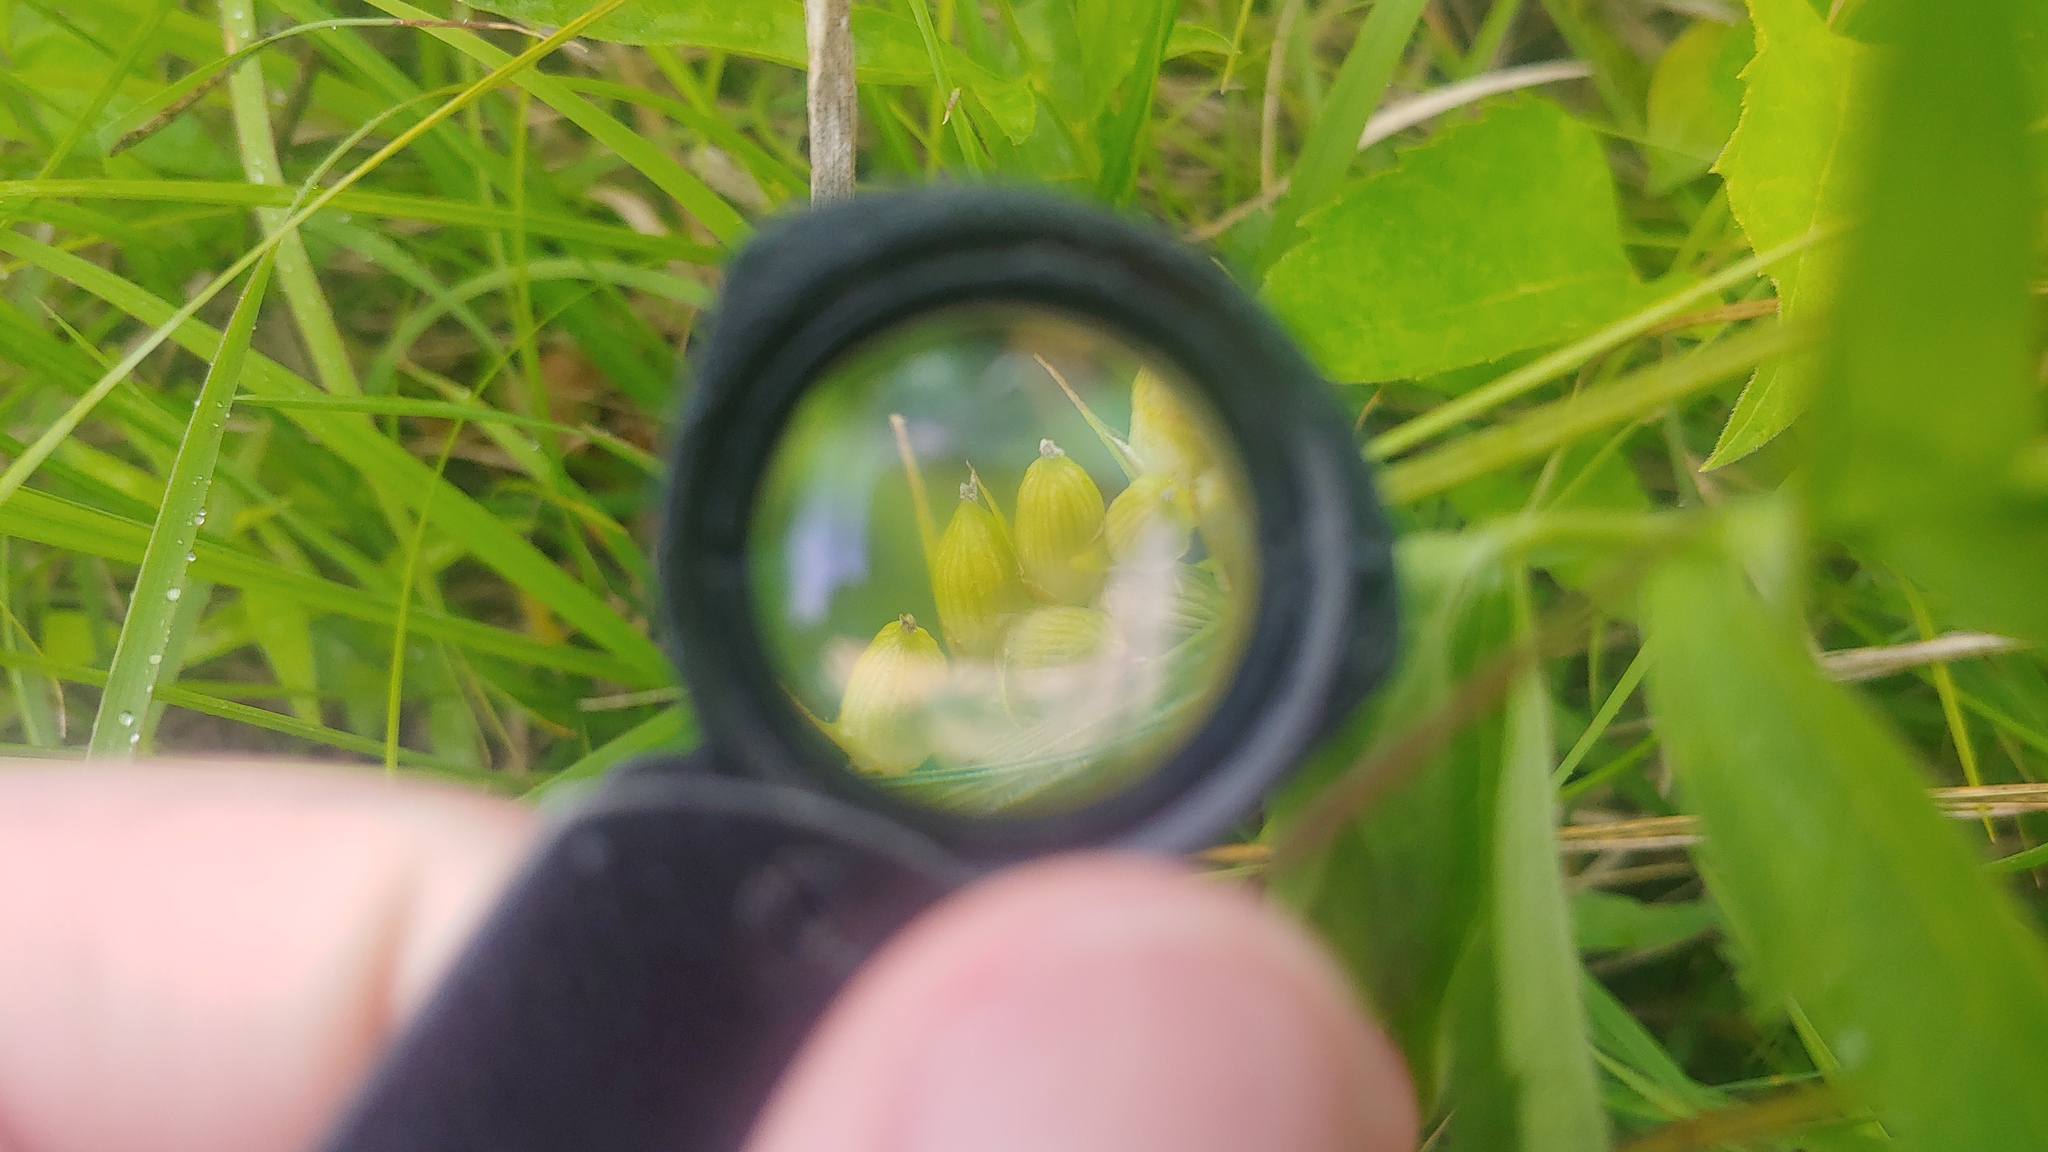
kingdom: Plantae
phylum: Tracheophyta
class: Liliopsida
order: Poales
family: Cyperaceae
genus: Carex
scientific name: Carex conoidea
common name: Cone shaped sedge
